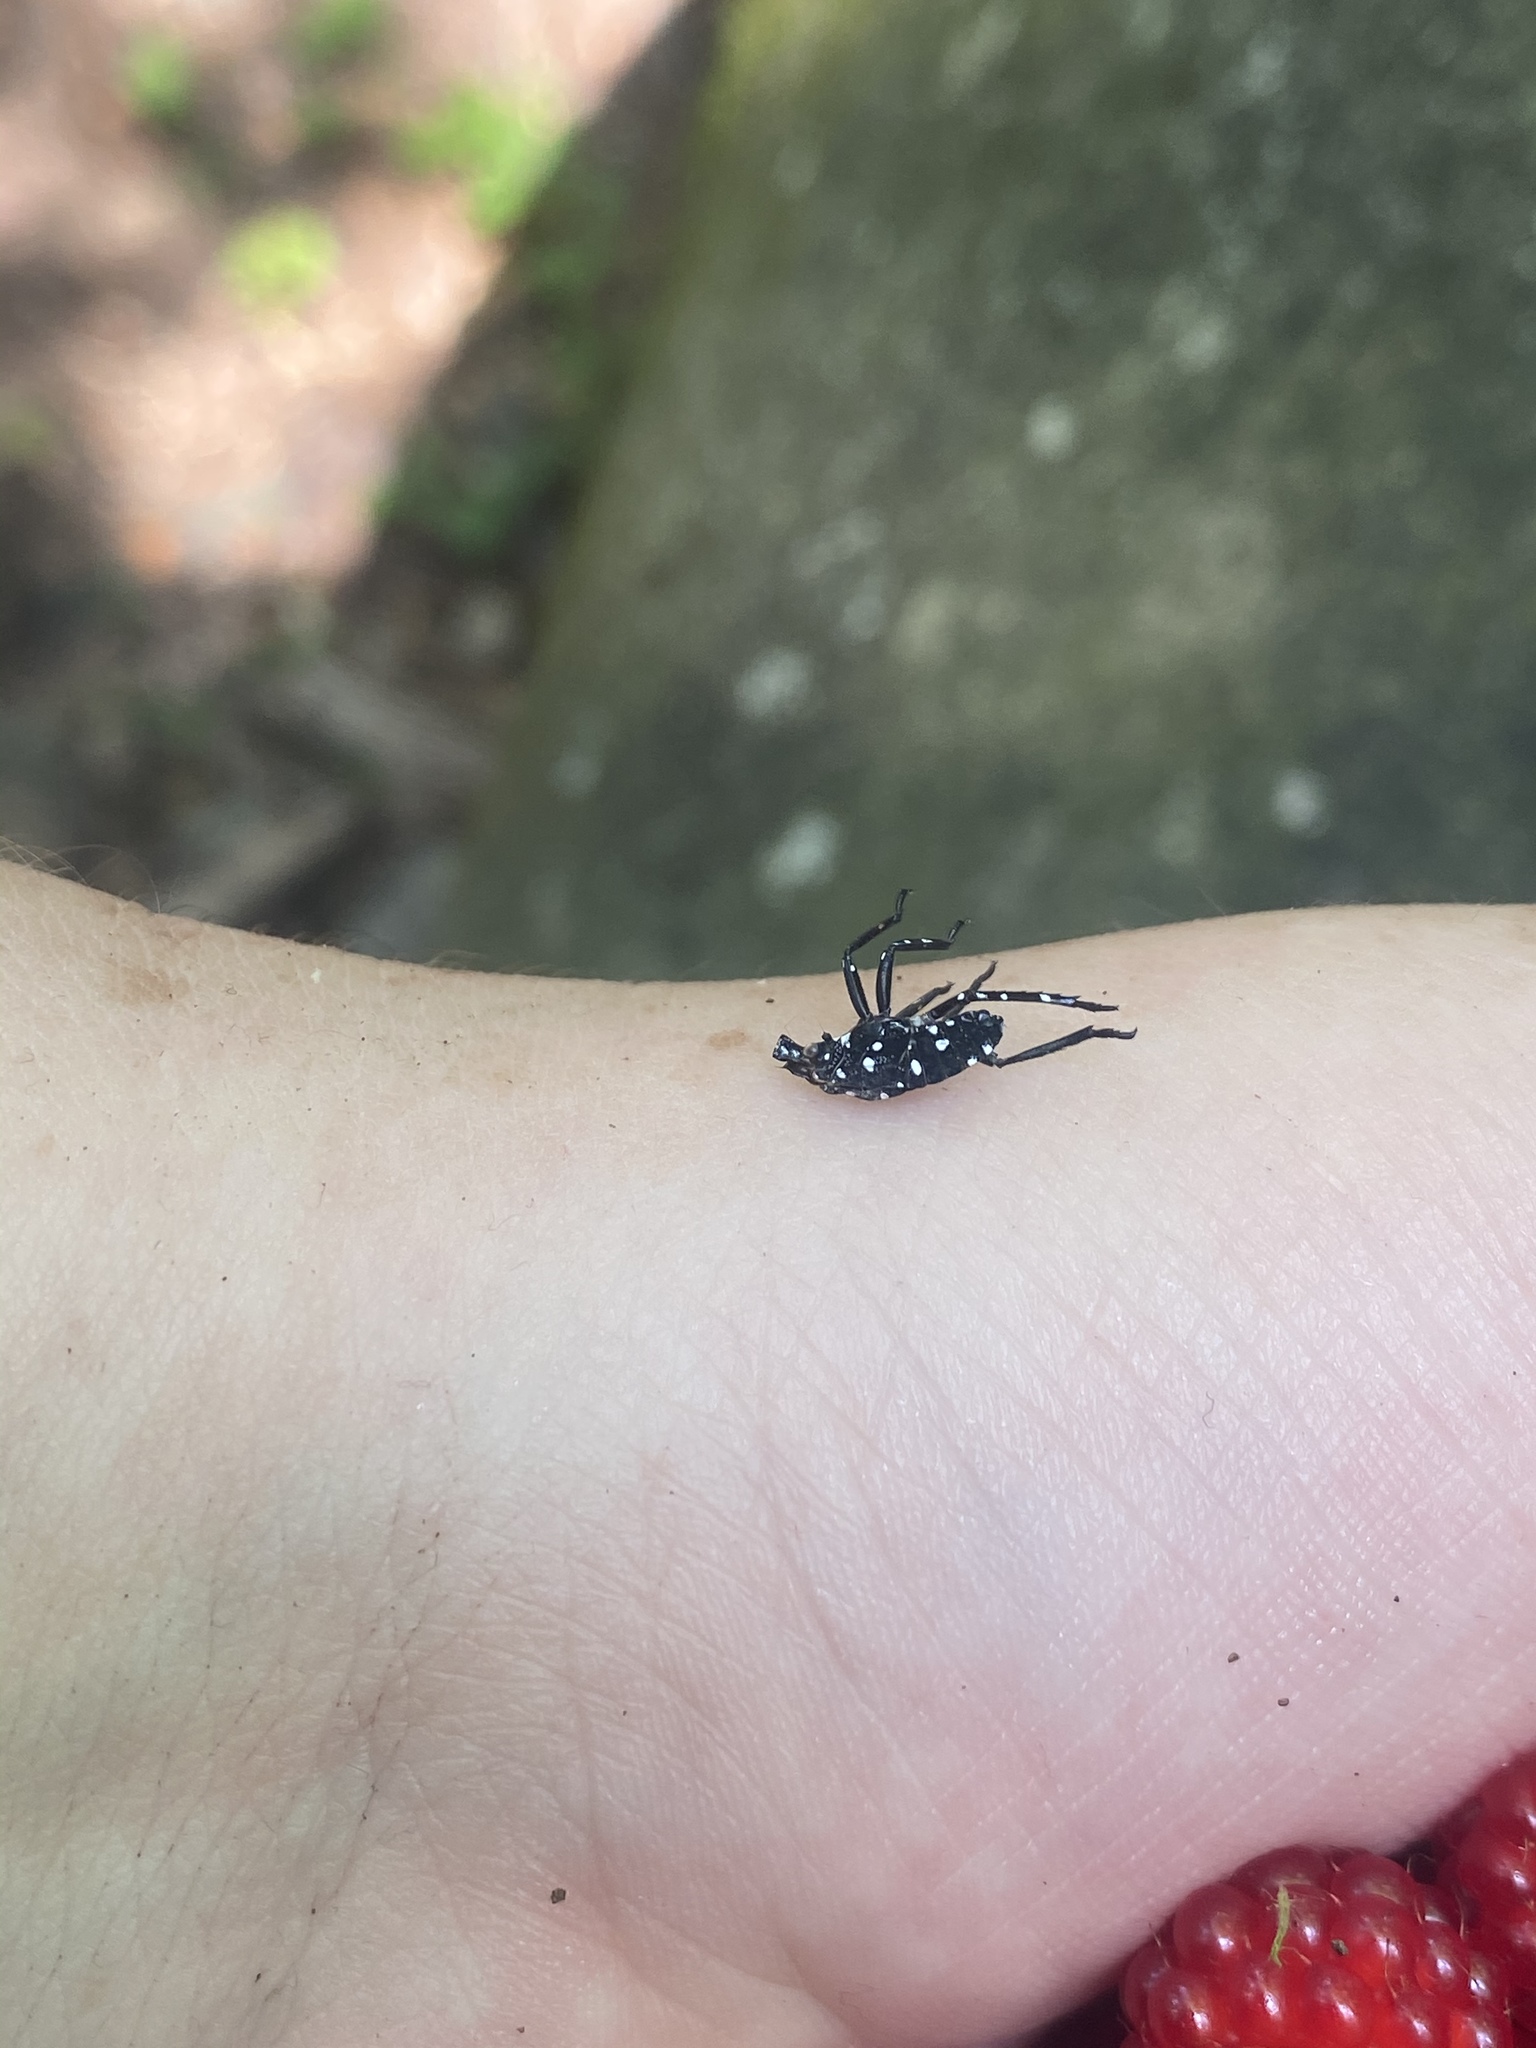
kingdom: Animalia
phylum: Arthropoda
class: Insecta
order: Hemiptera
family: Fulgoridae
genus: Lycorma
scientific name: Lycorma delicatula
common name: Spotted lanternfly
